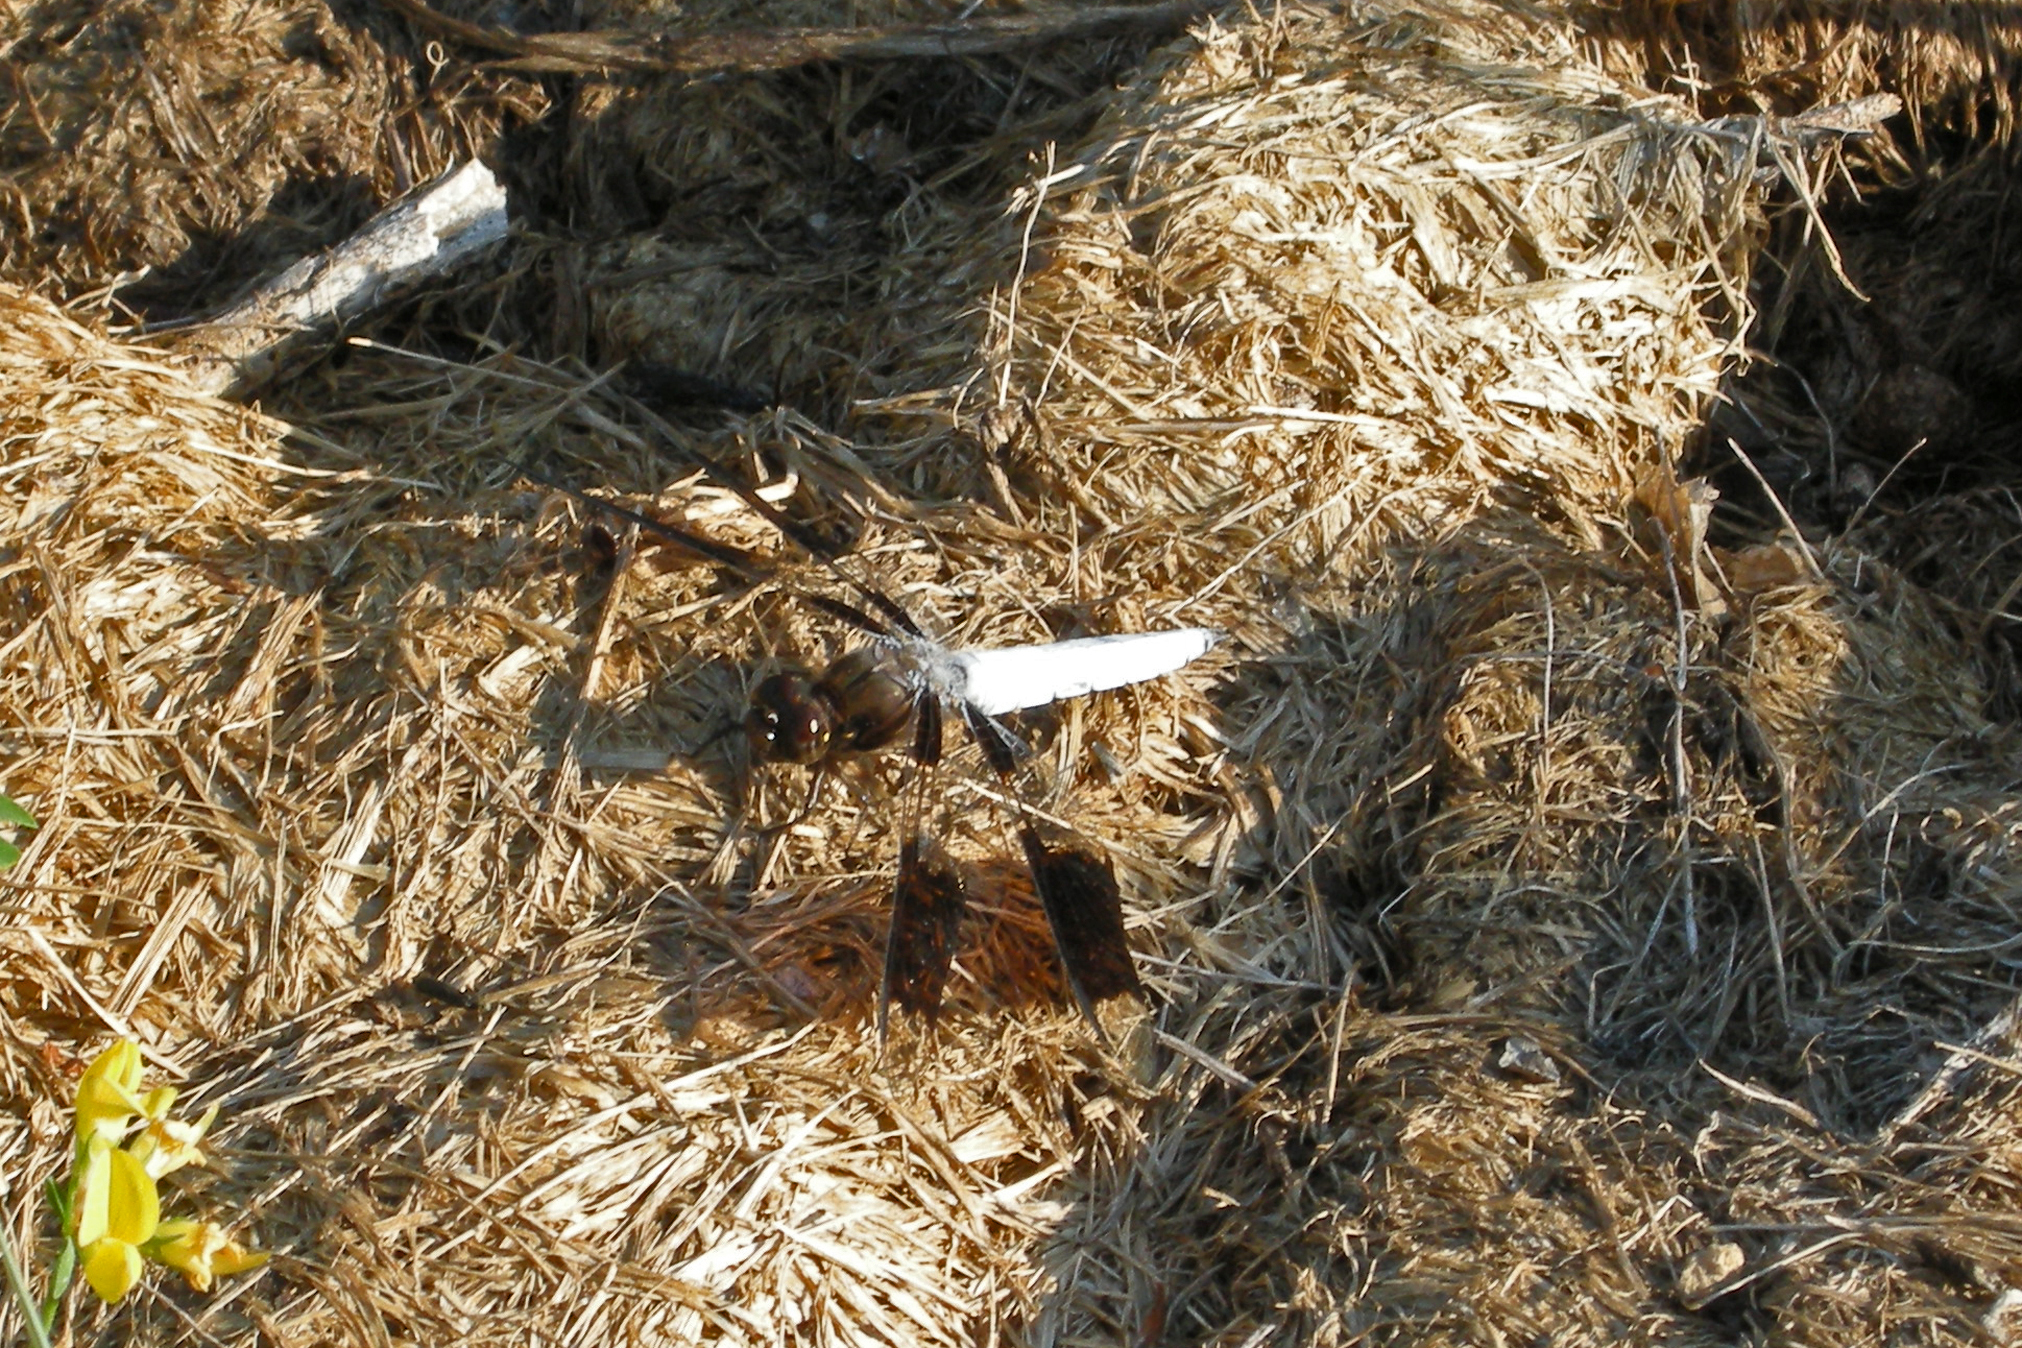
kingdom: Animalia
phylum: Arthropoda
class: Insecta
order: Odonata
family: Libellulidae
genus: Plathemis
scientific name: Plathemis lydia
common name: Common whitetail
